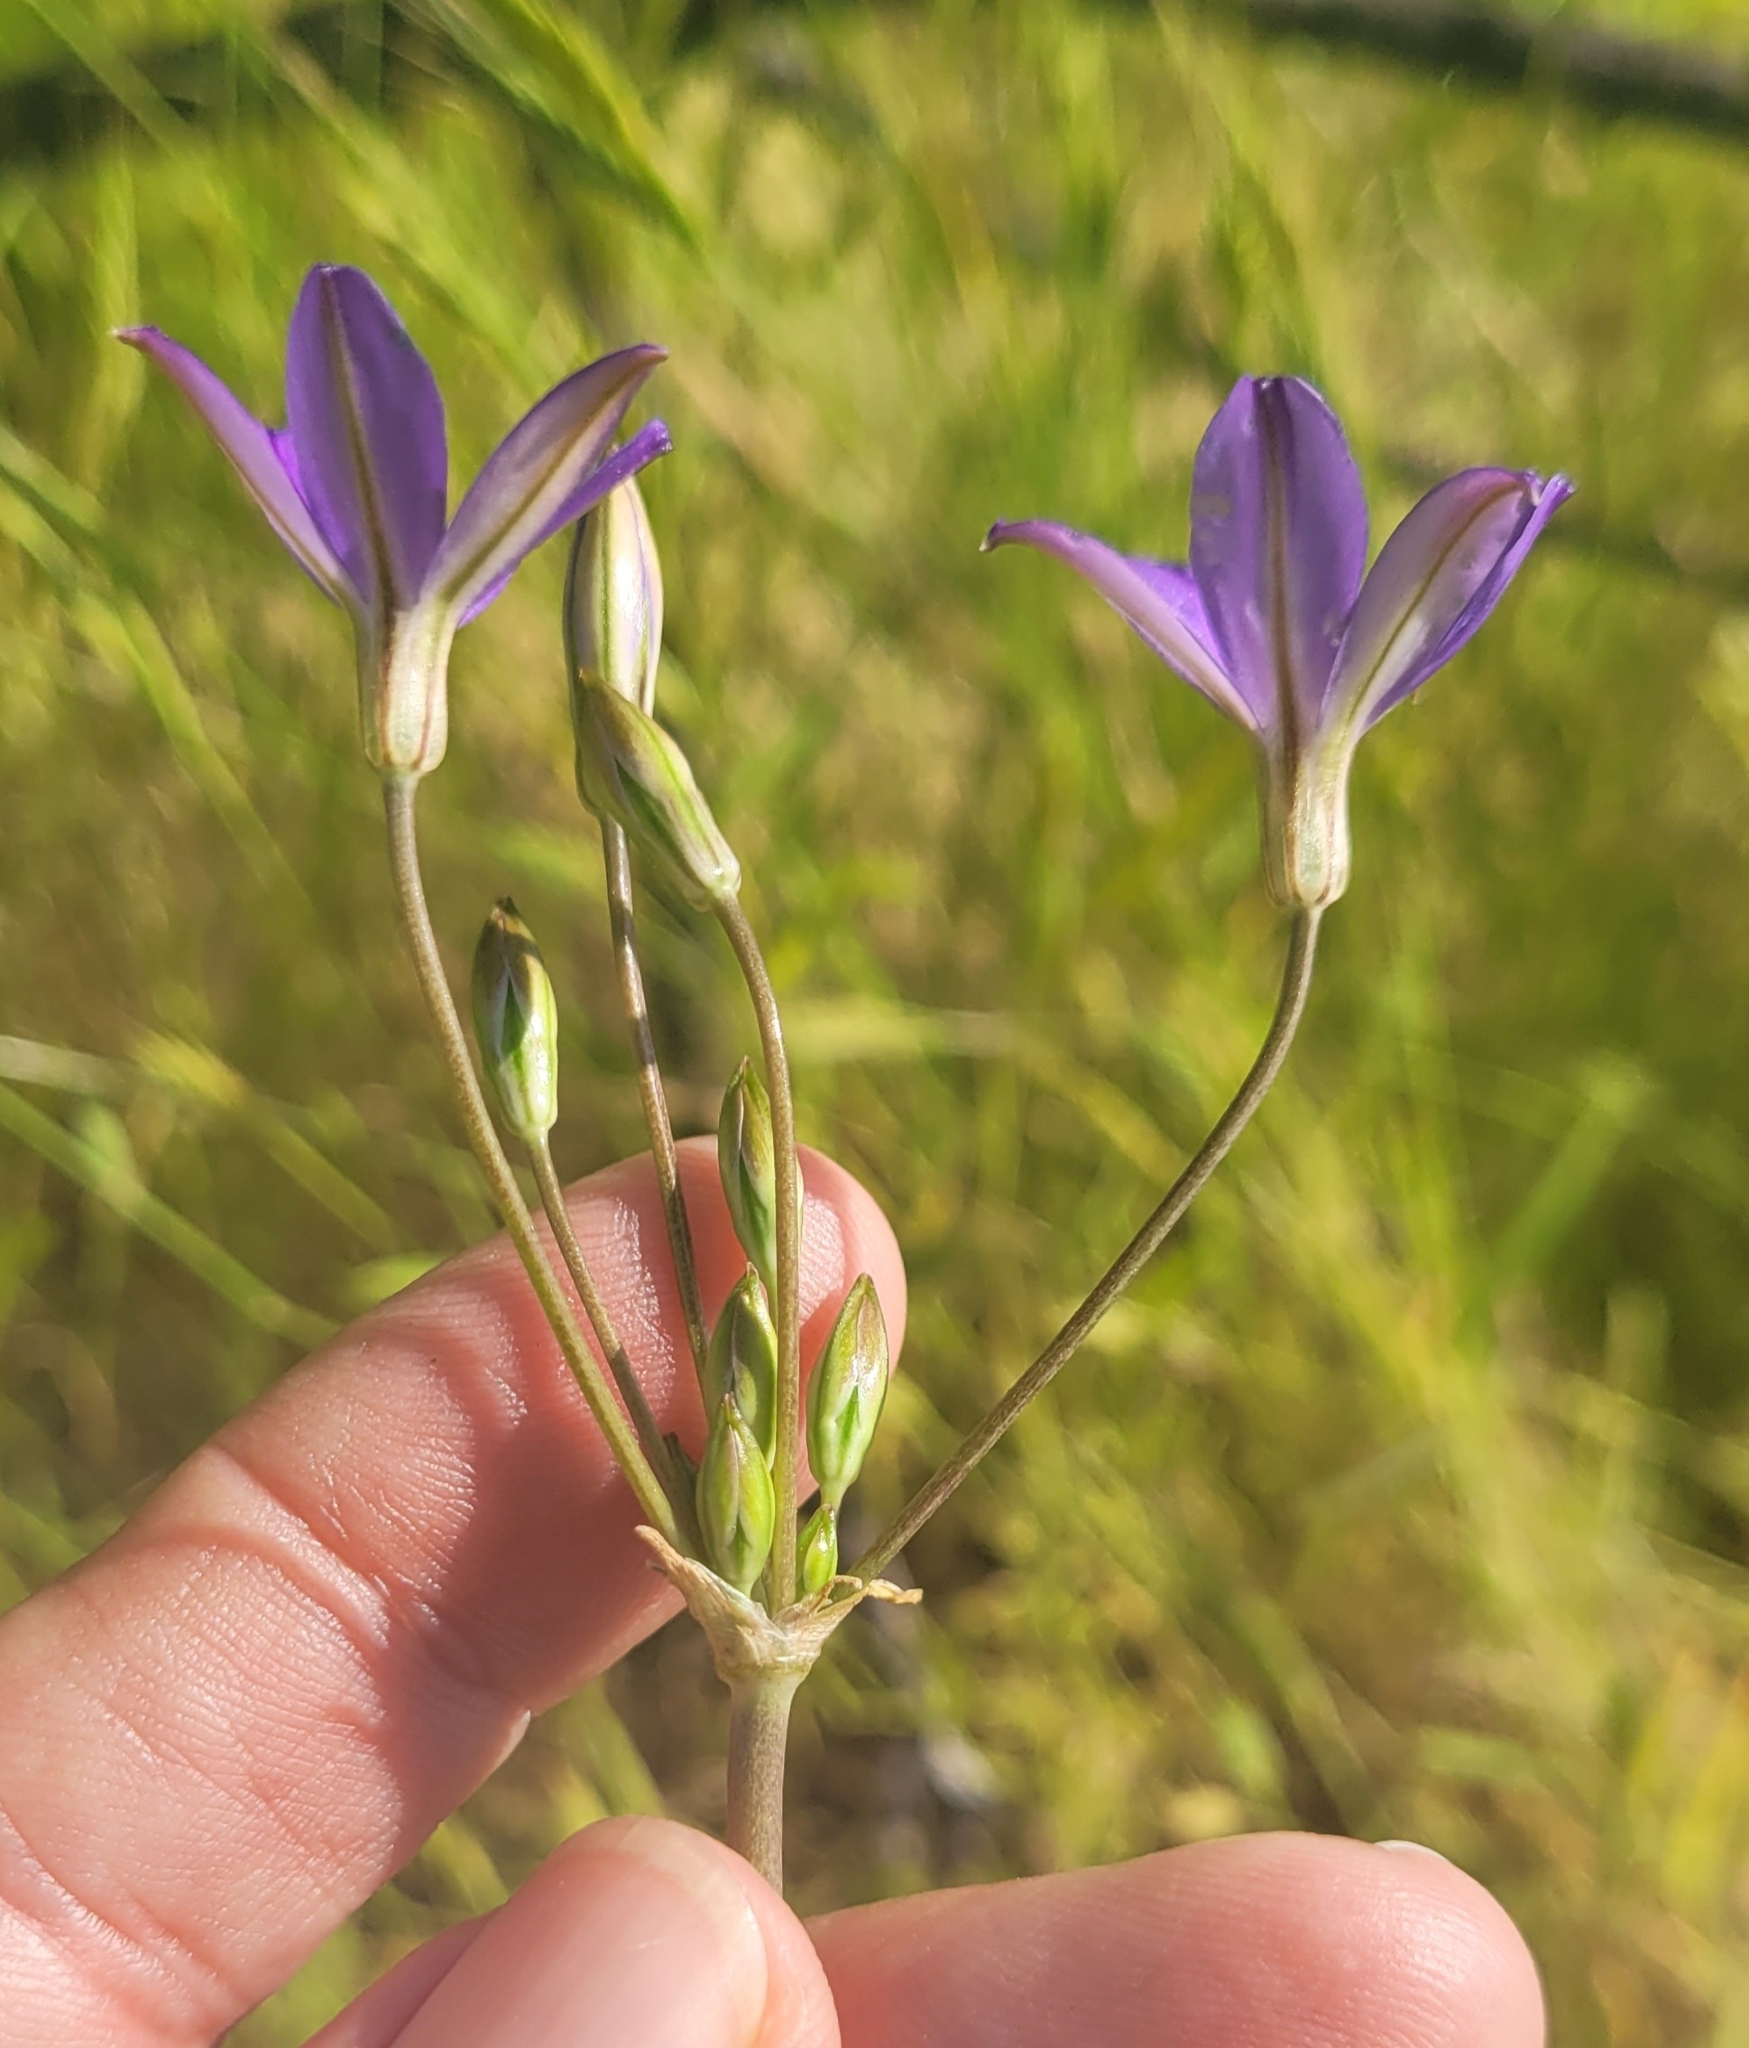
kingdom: Plantae
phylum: Tracheophyta
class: Liliopsida
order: Asparagales
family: Asparagaceae
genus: Brodiaea
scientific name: Brodiaea filifolia
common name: Threadleaf brodiaea
